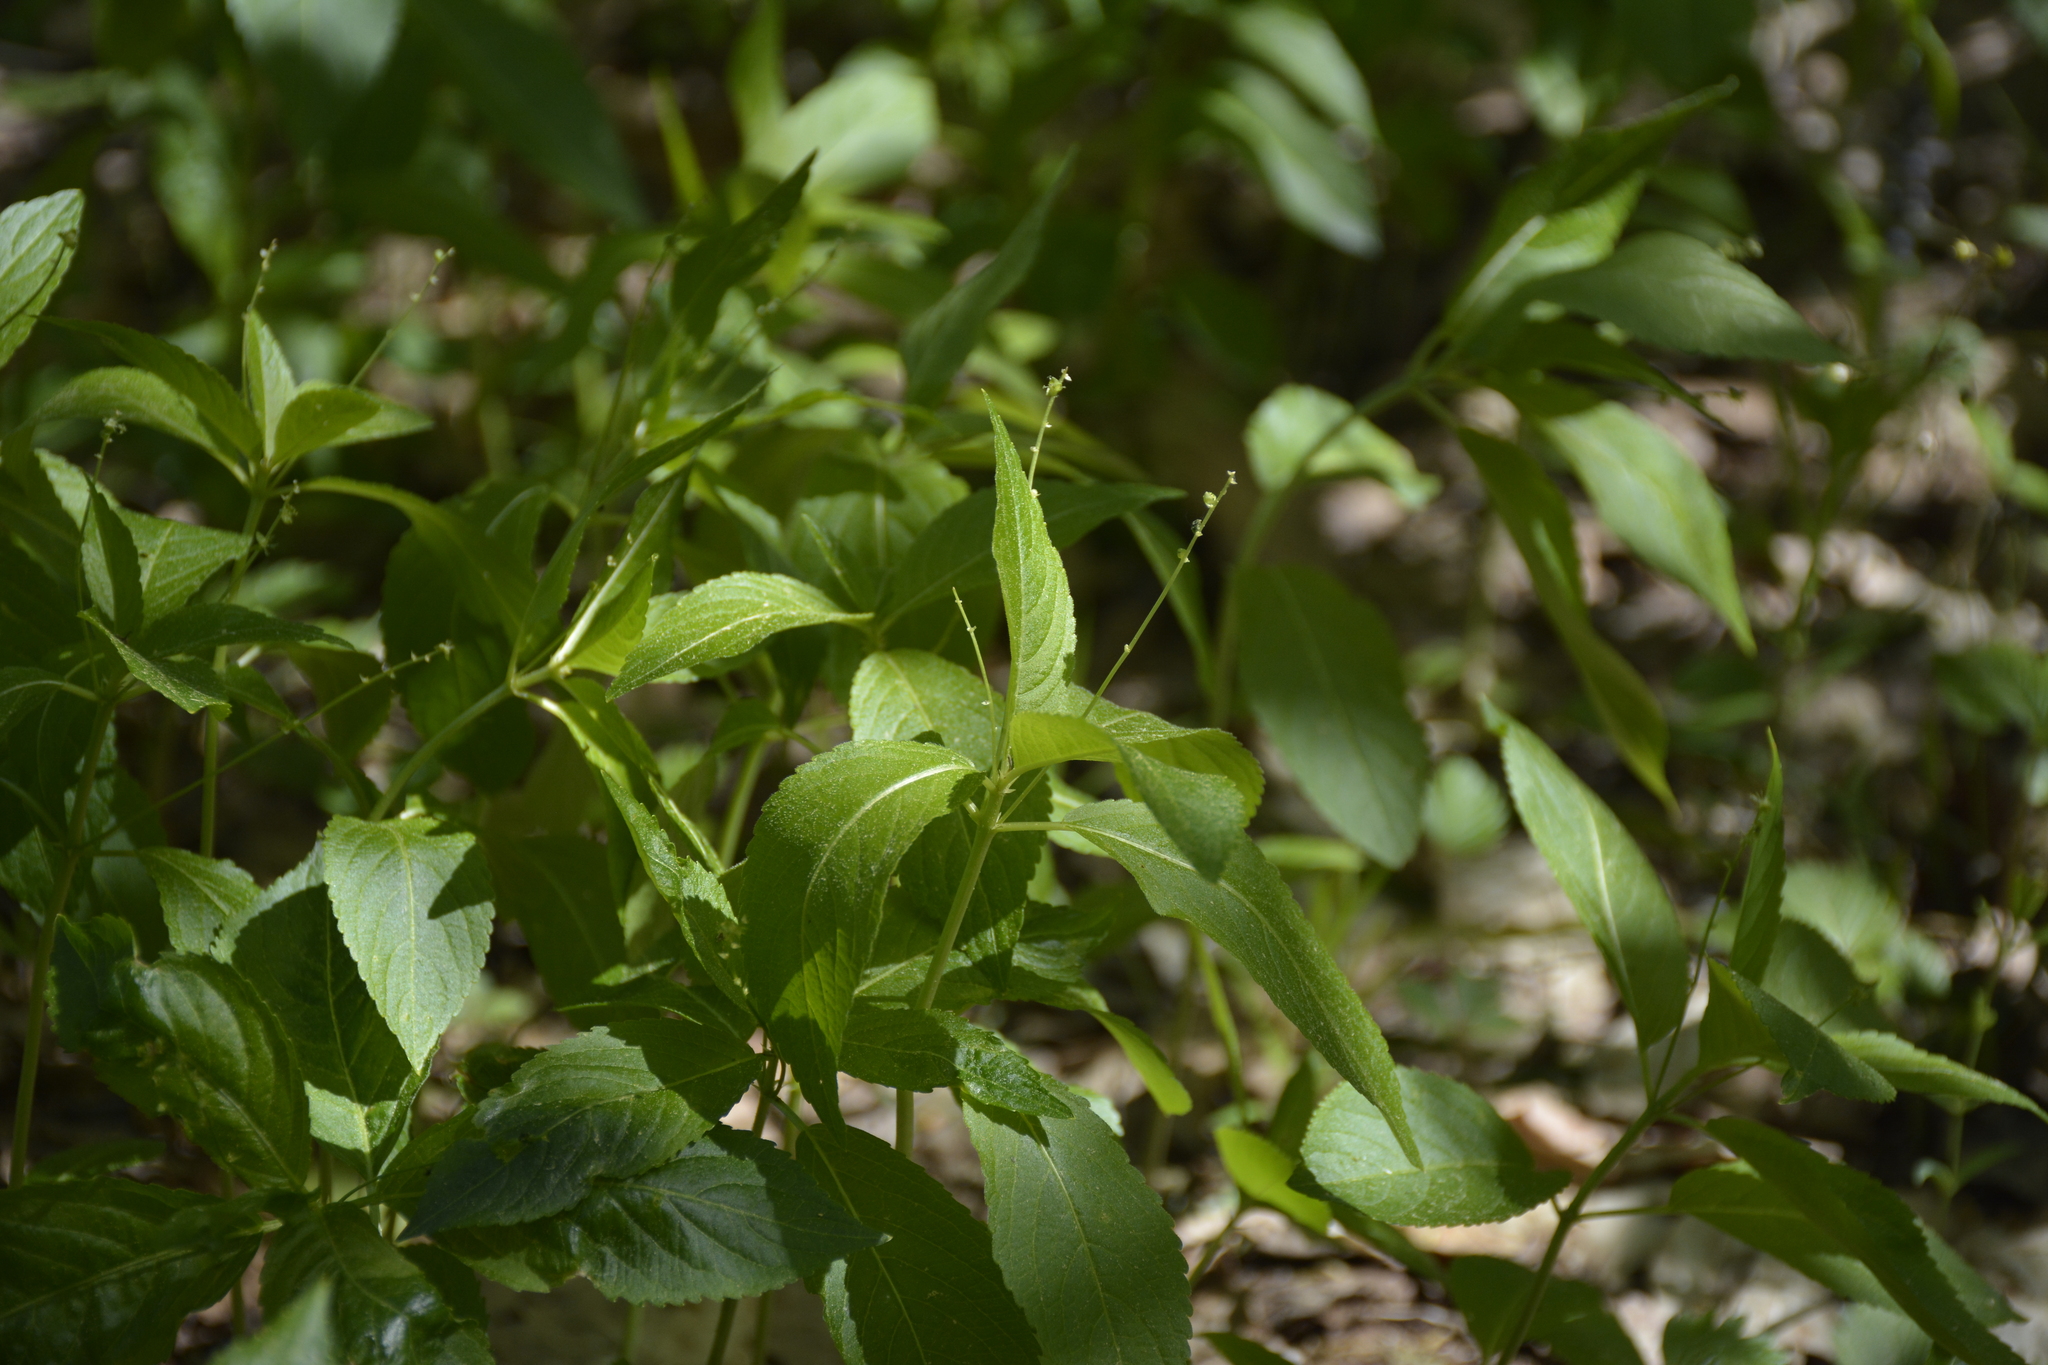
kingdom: Plantae
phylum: Tracheophyta
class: Magnoliopsida
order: Malpighiales
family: Euphorbiaceae
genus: Mercurialis
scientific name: Mercurialis perennis
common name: Dog mercury
